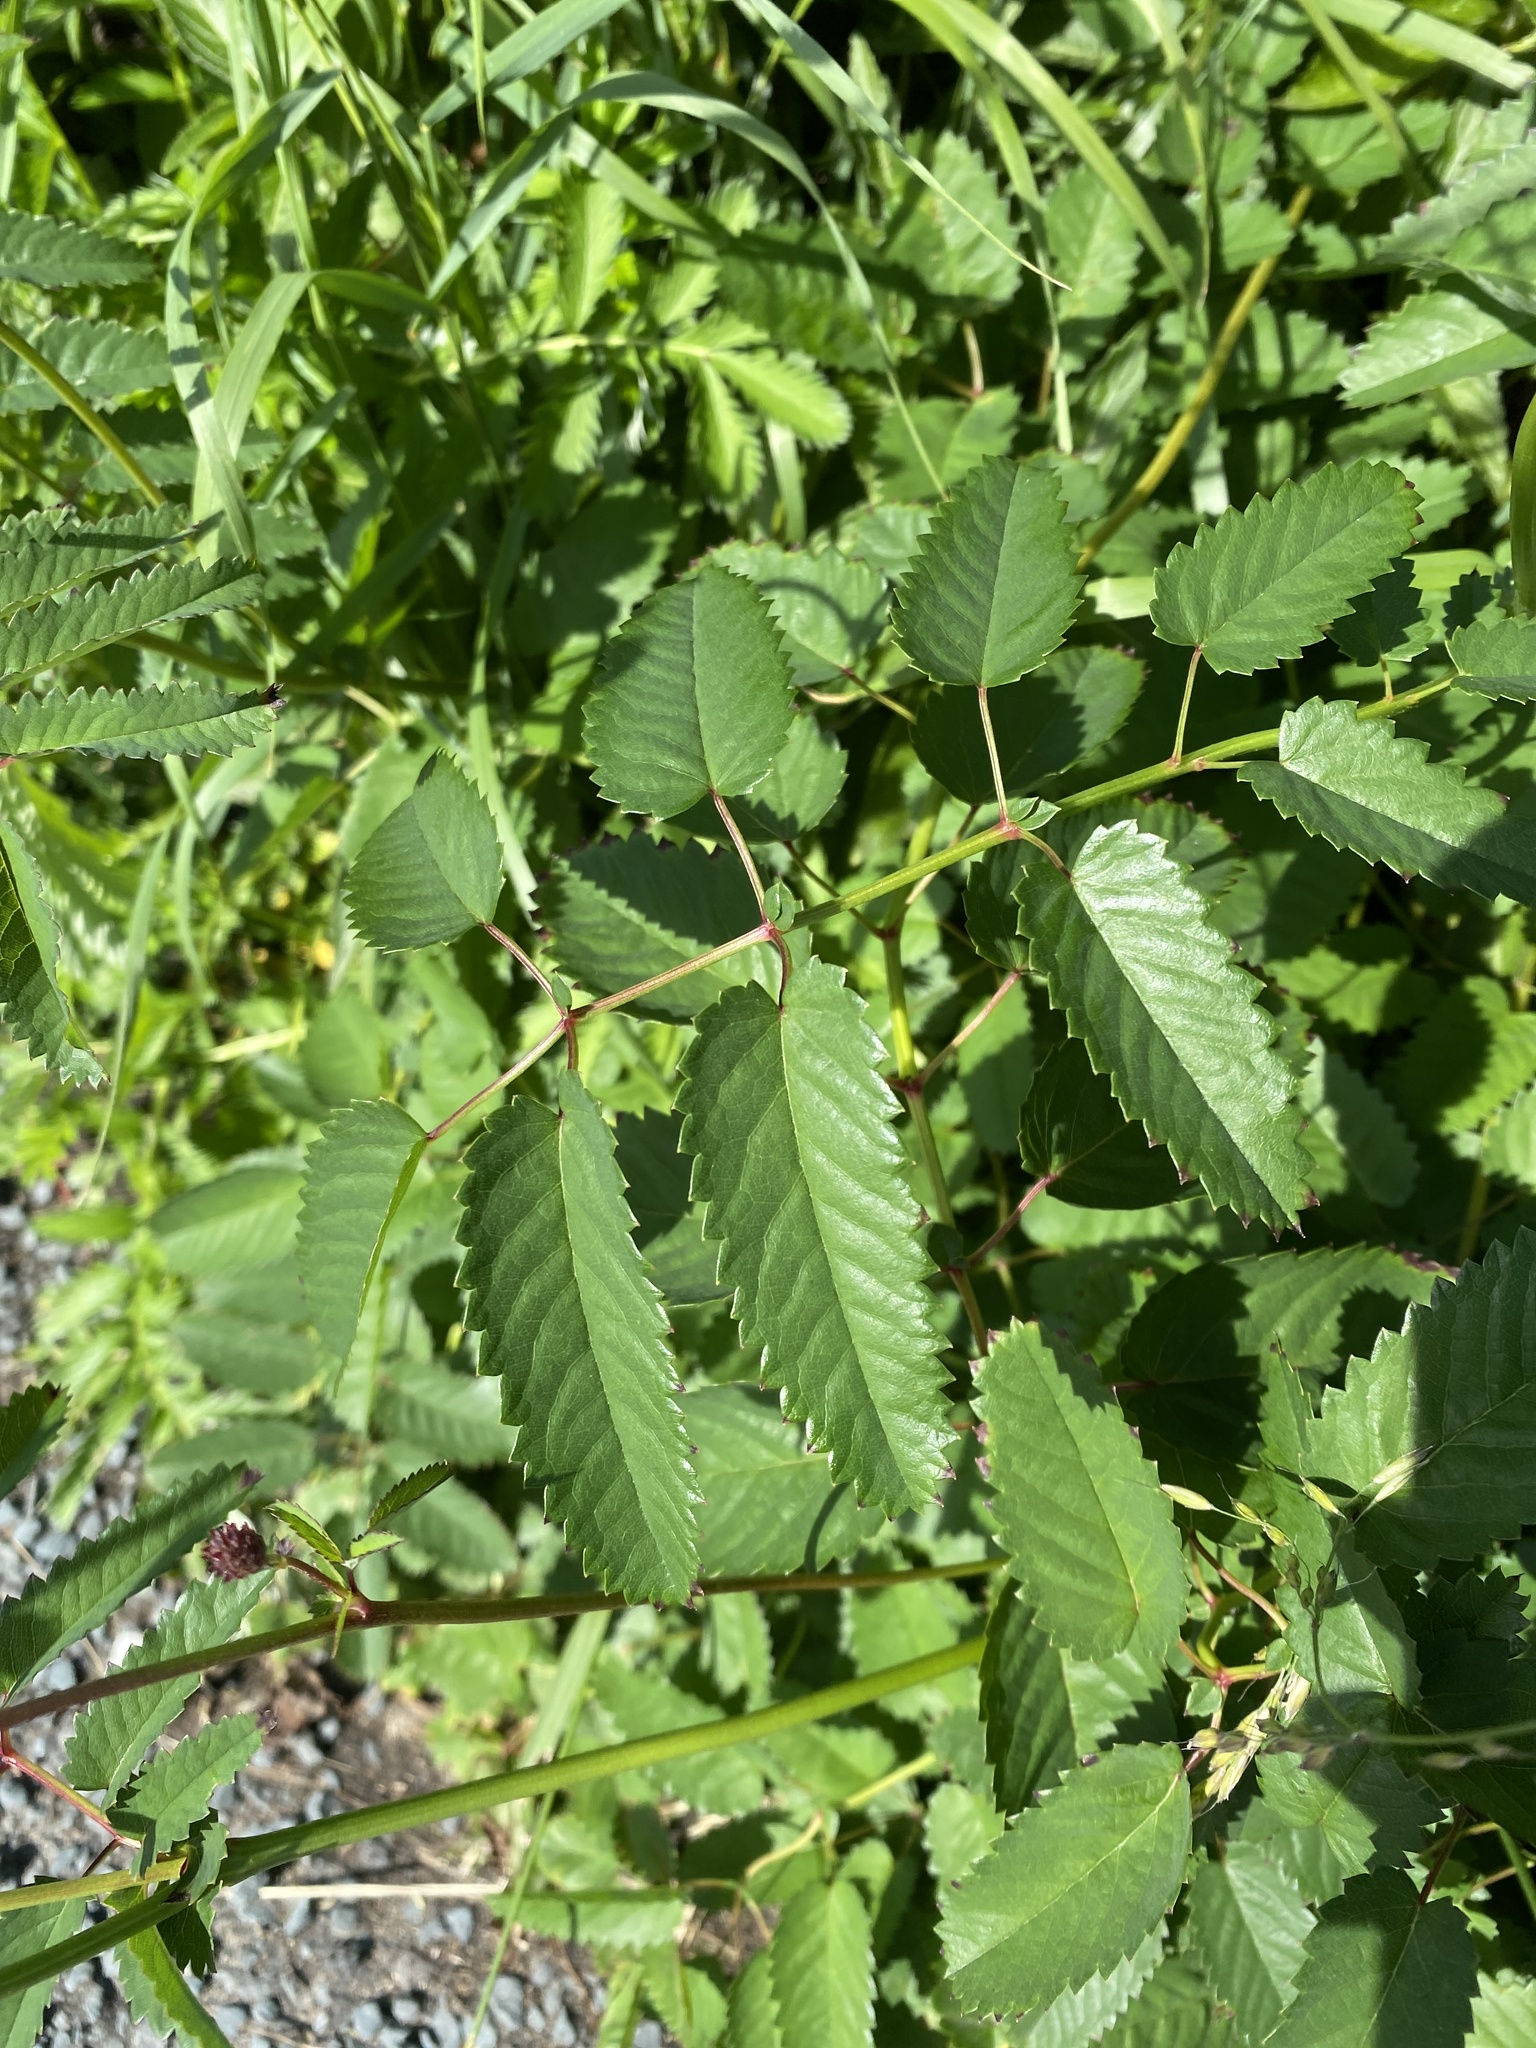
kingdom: Plantae
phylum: Tracheophyta
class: Magnoliopsida
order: Rosales
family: Rosaceae
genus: Sanguisorba
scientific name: Sanguisorba officinalis
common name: Great burnet
